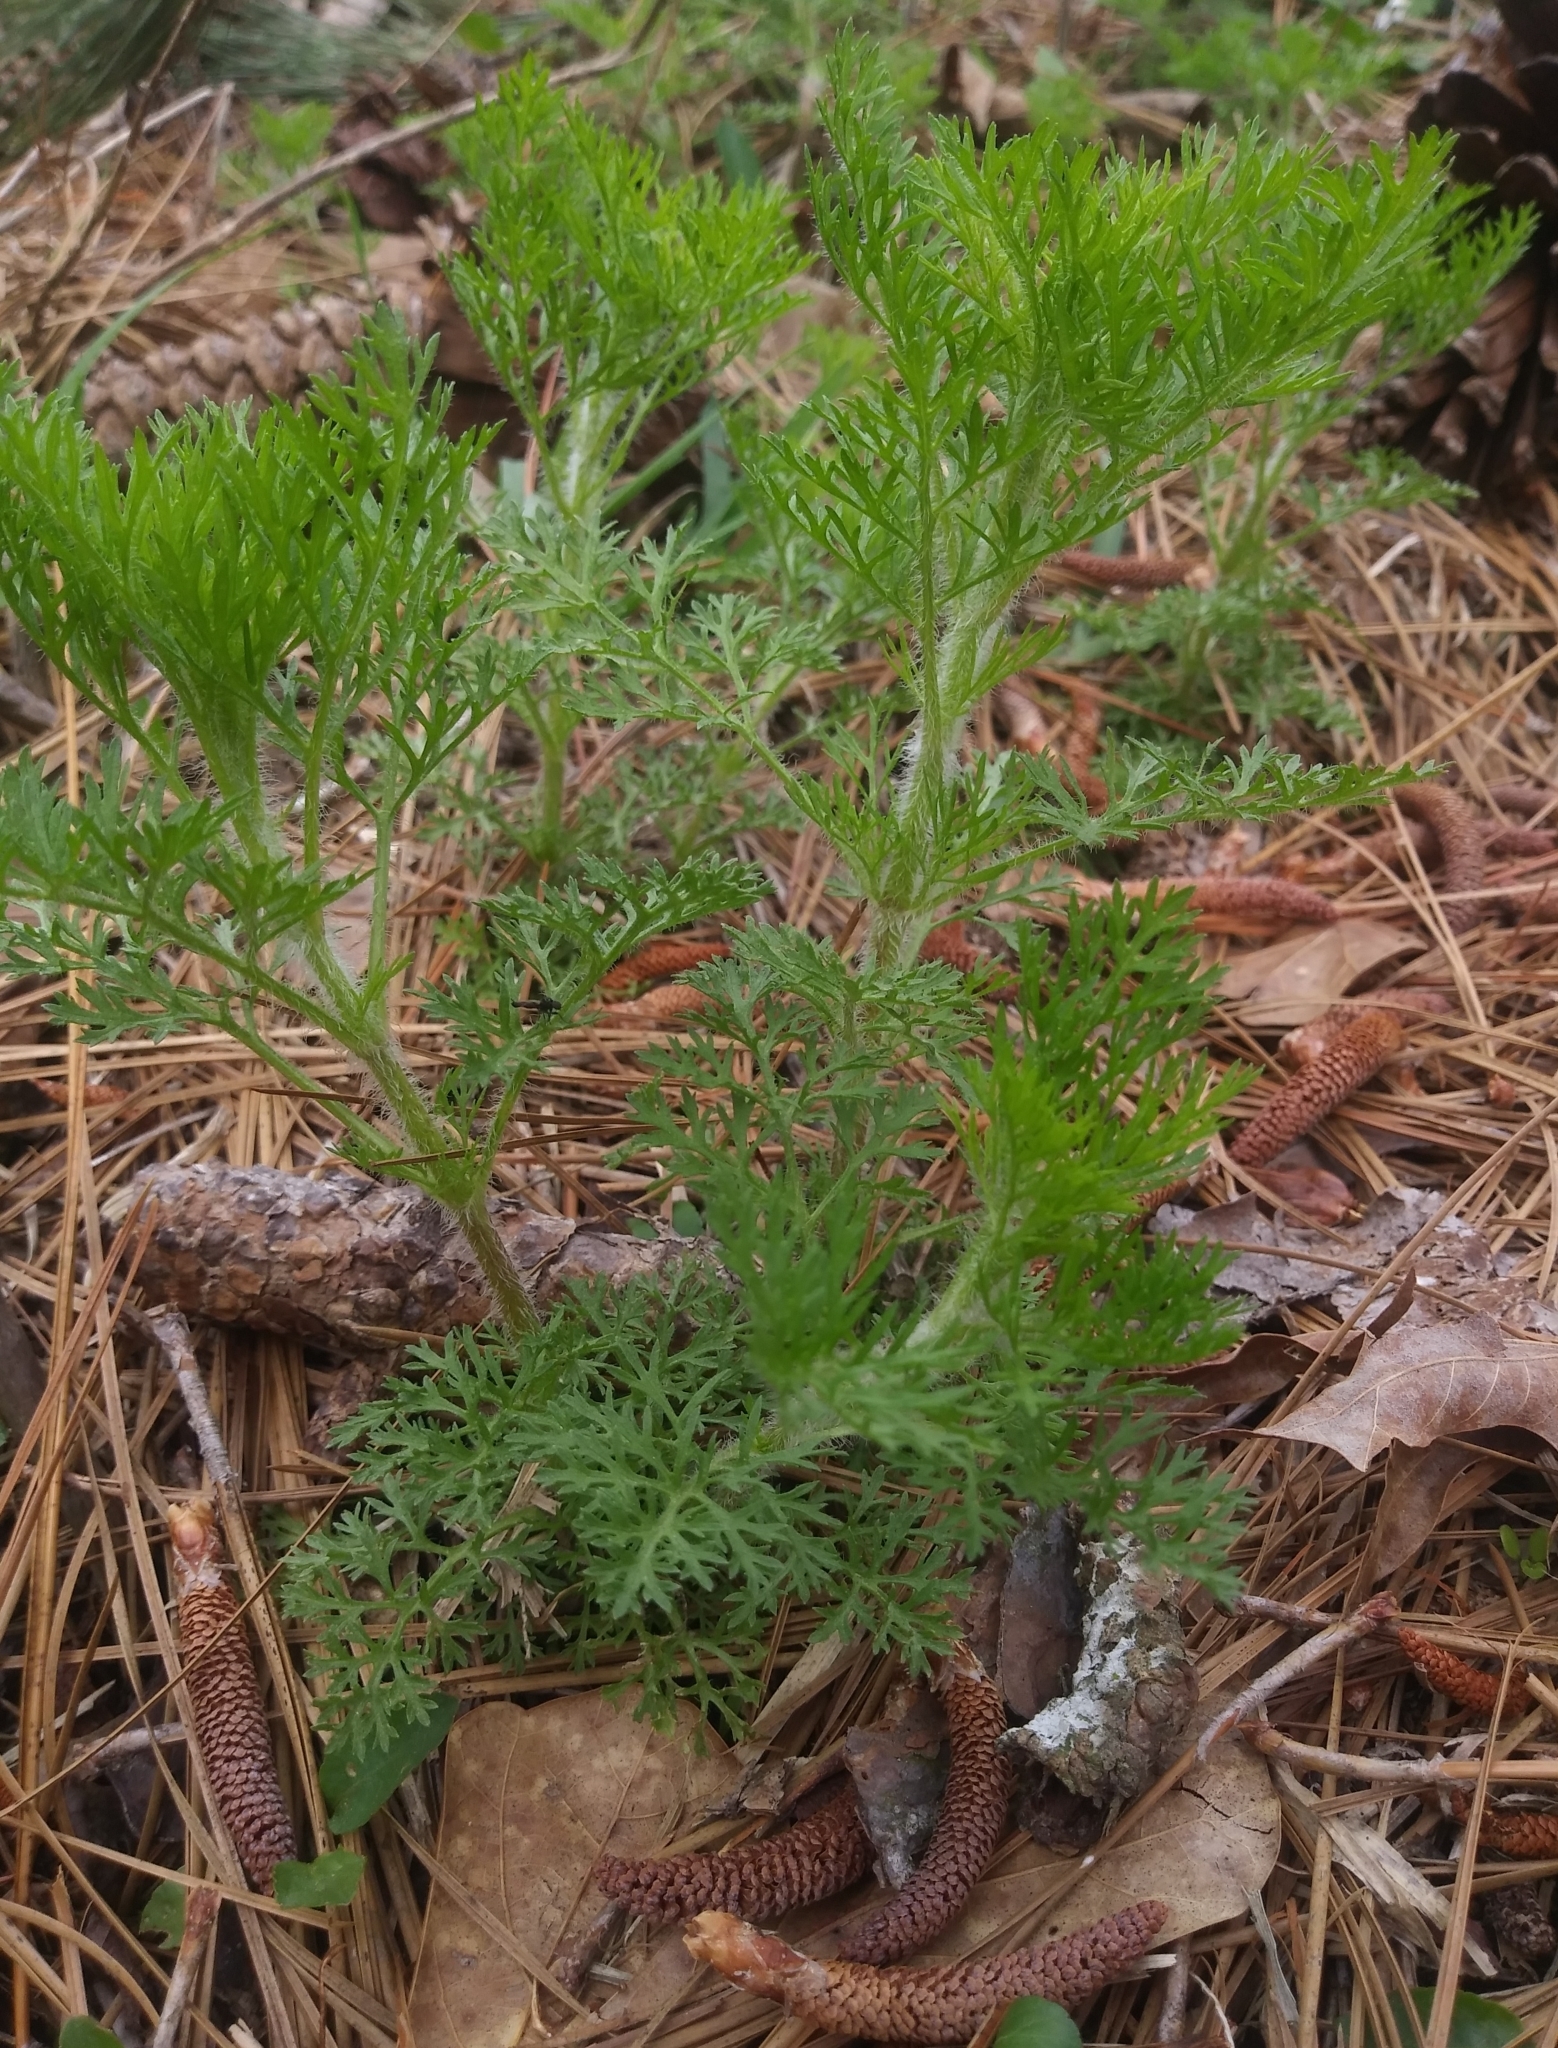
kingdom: Plantae
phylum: Tracheophyta
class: Magnoliopsida
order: Asterales
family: Asteraceae
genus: Eupatorium
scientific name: Eupatorium capillifolium
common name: Dog-fennel
